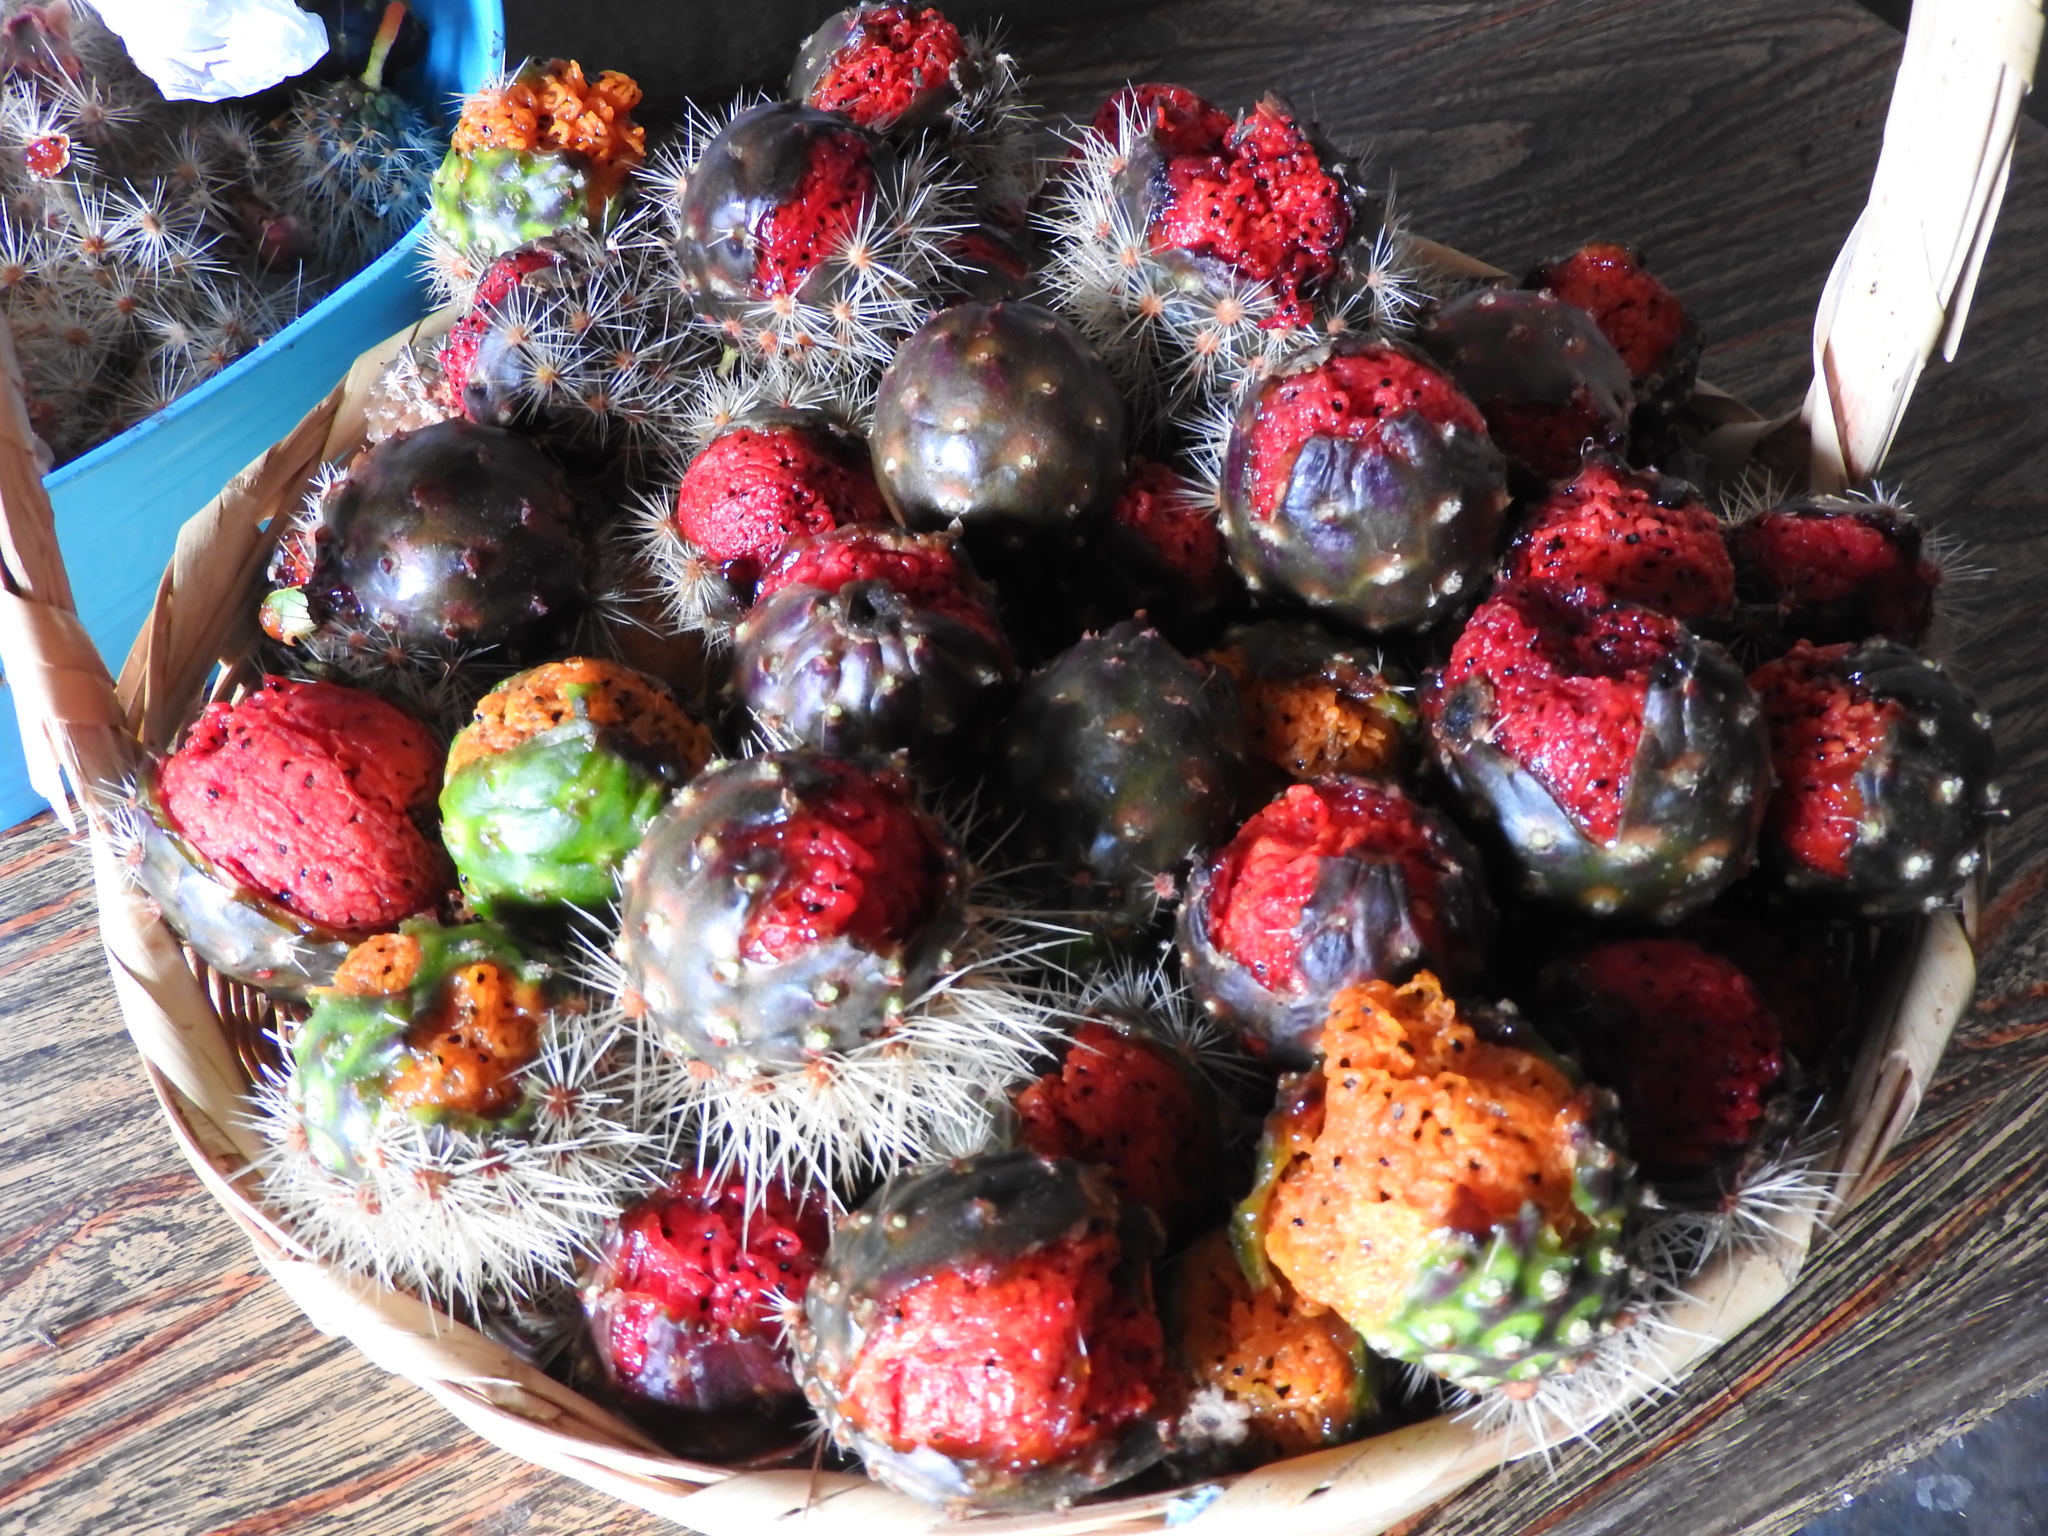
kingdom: Plantae
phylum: Tracheophyta
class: Magnoliopsida
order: Caryophyllales
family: Cactaceae
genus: Stenocereus
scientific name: Stenocereus queretaroensis
